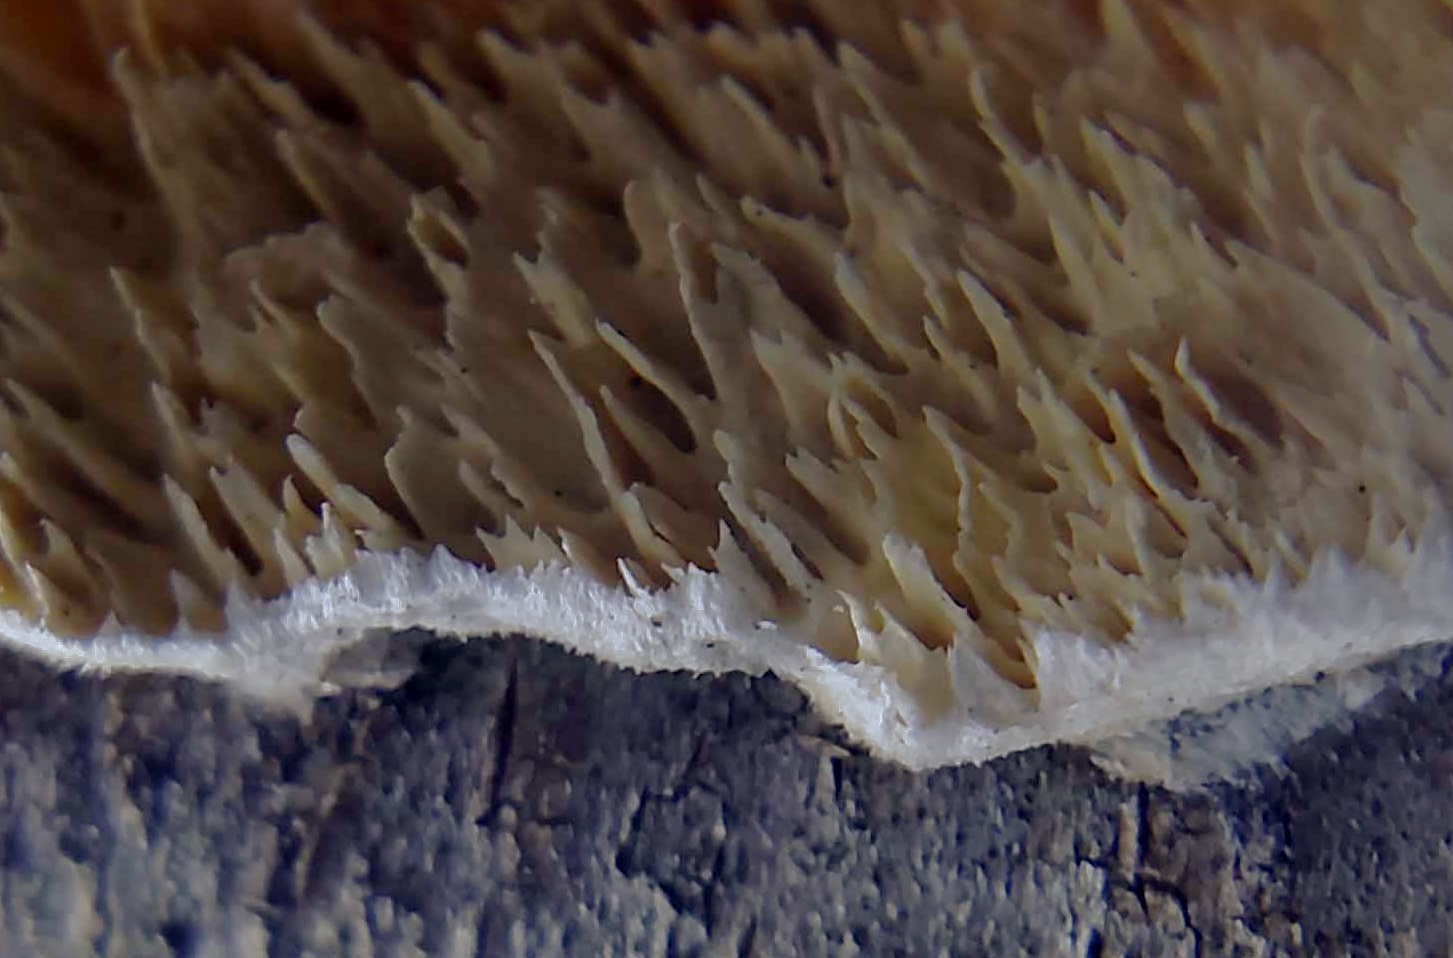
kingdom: Fungi
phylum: Basidiomycota
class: Agaricomycetes
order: Polyporales
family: Irpicaceae
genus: Irpex
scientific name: Irpex lacteus
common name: Milk-white toothed polypore
